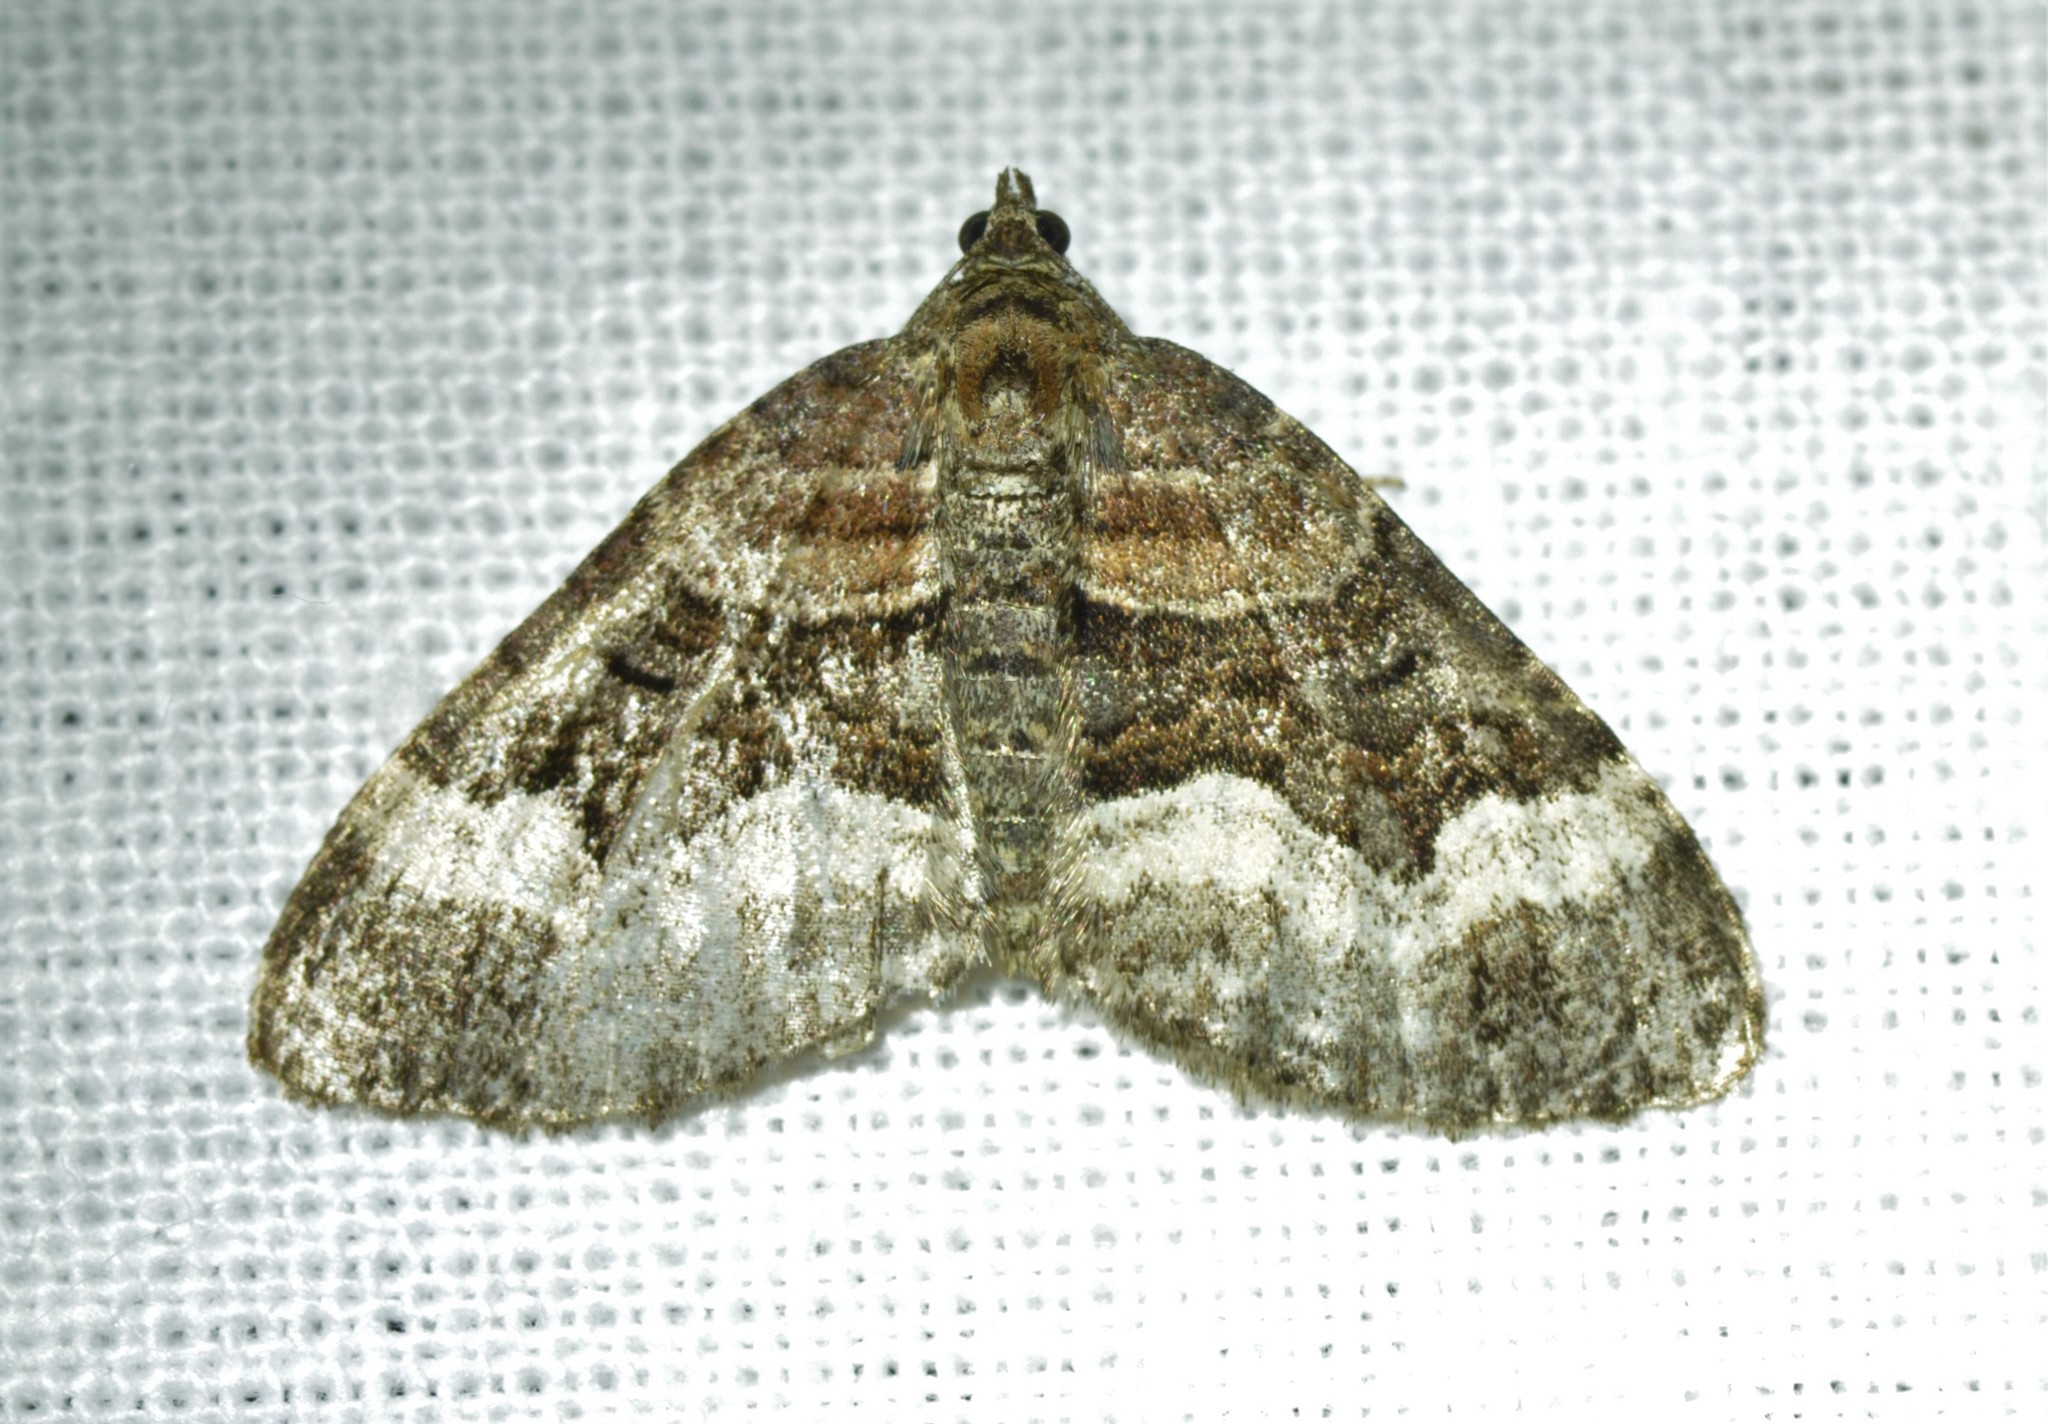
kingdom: Animalia
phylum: Arthropoda
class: Insecta
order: Lepidoptera
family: Geometridae
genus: Xanthorhoe
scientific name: Xanthorhoe biriviata
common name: Balsam carpet
